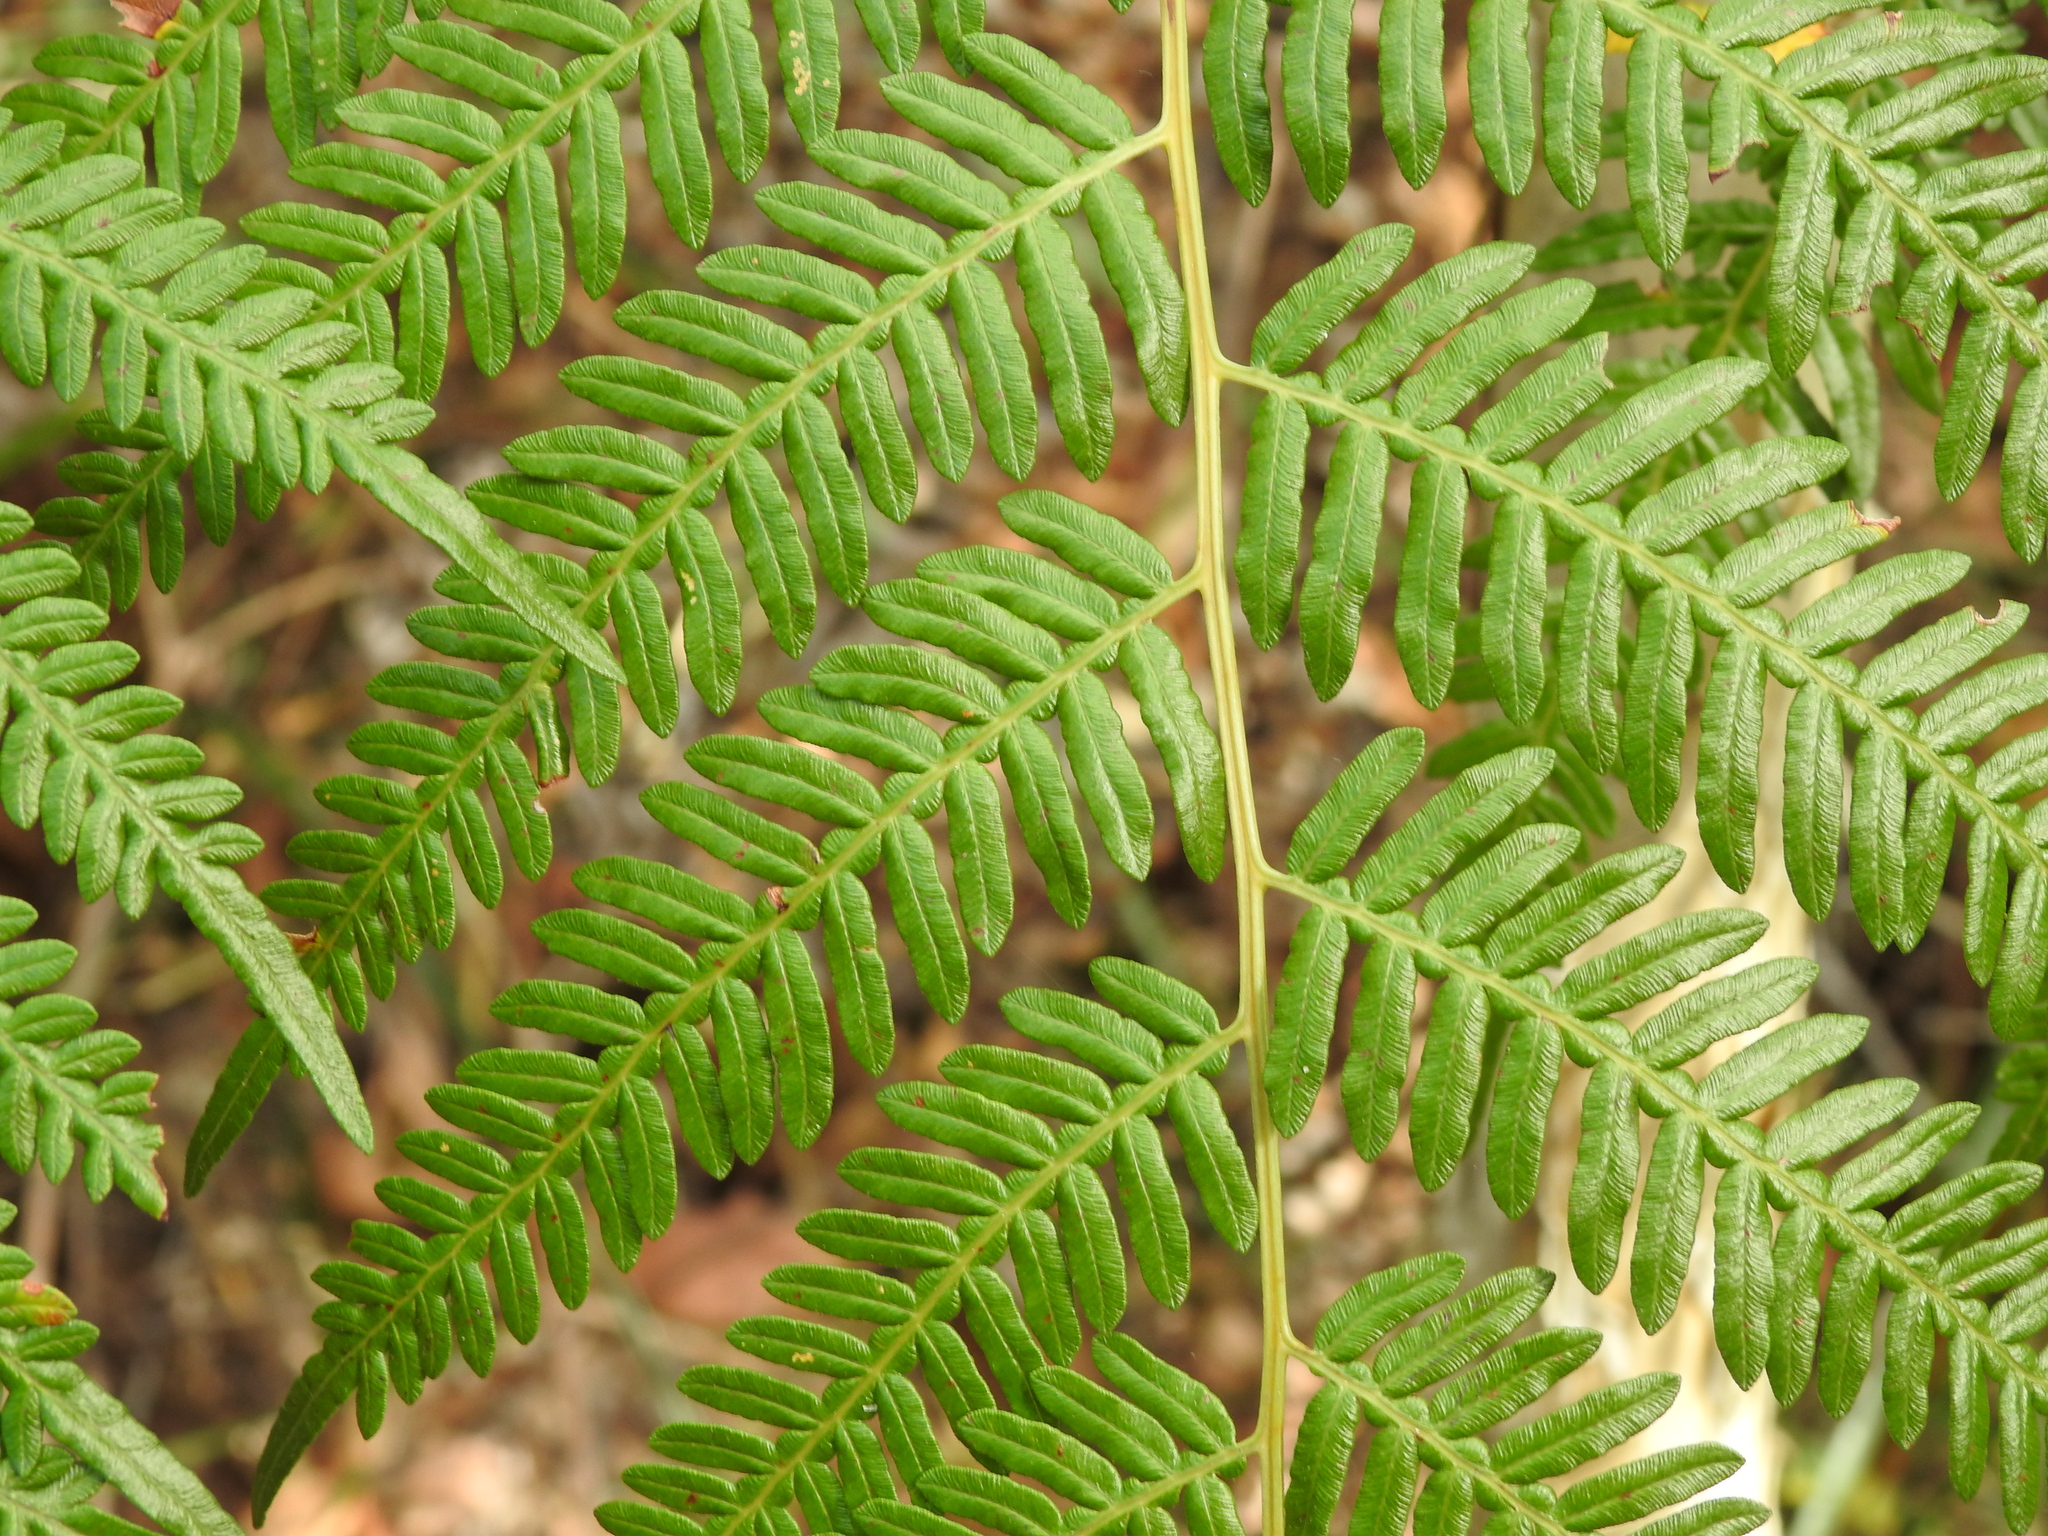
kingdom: Plantae
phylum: Tracheophyta
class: Polypodiopsida
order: Polypodiales
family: Dennstaedtiaceae
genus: Pteridium
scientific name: Pteridium esculentum
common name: Bracken fern
